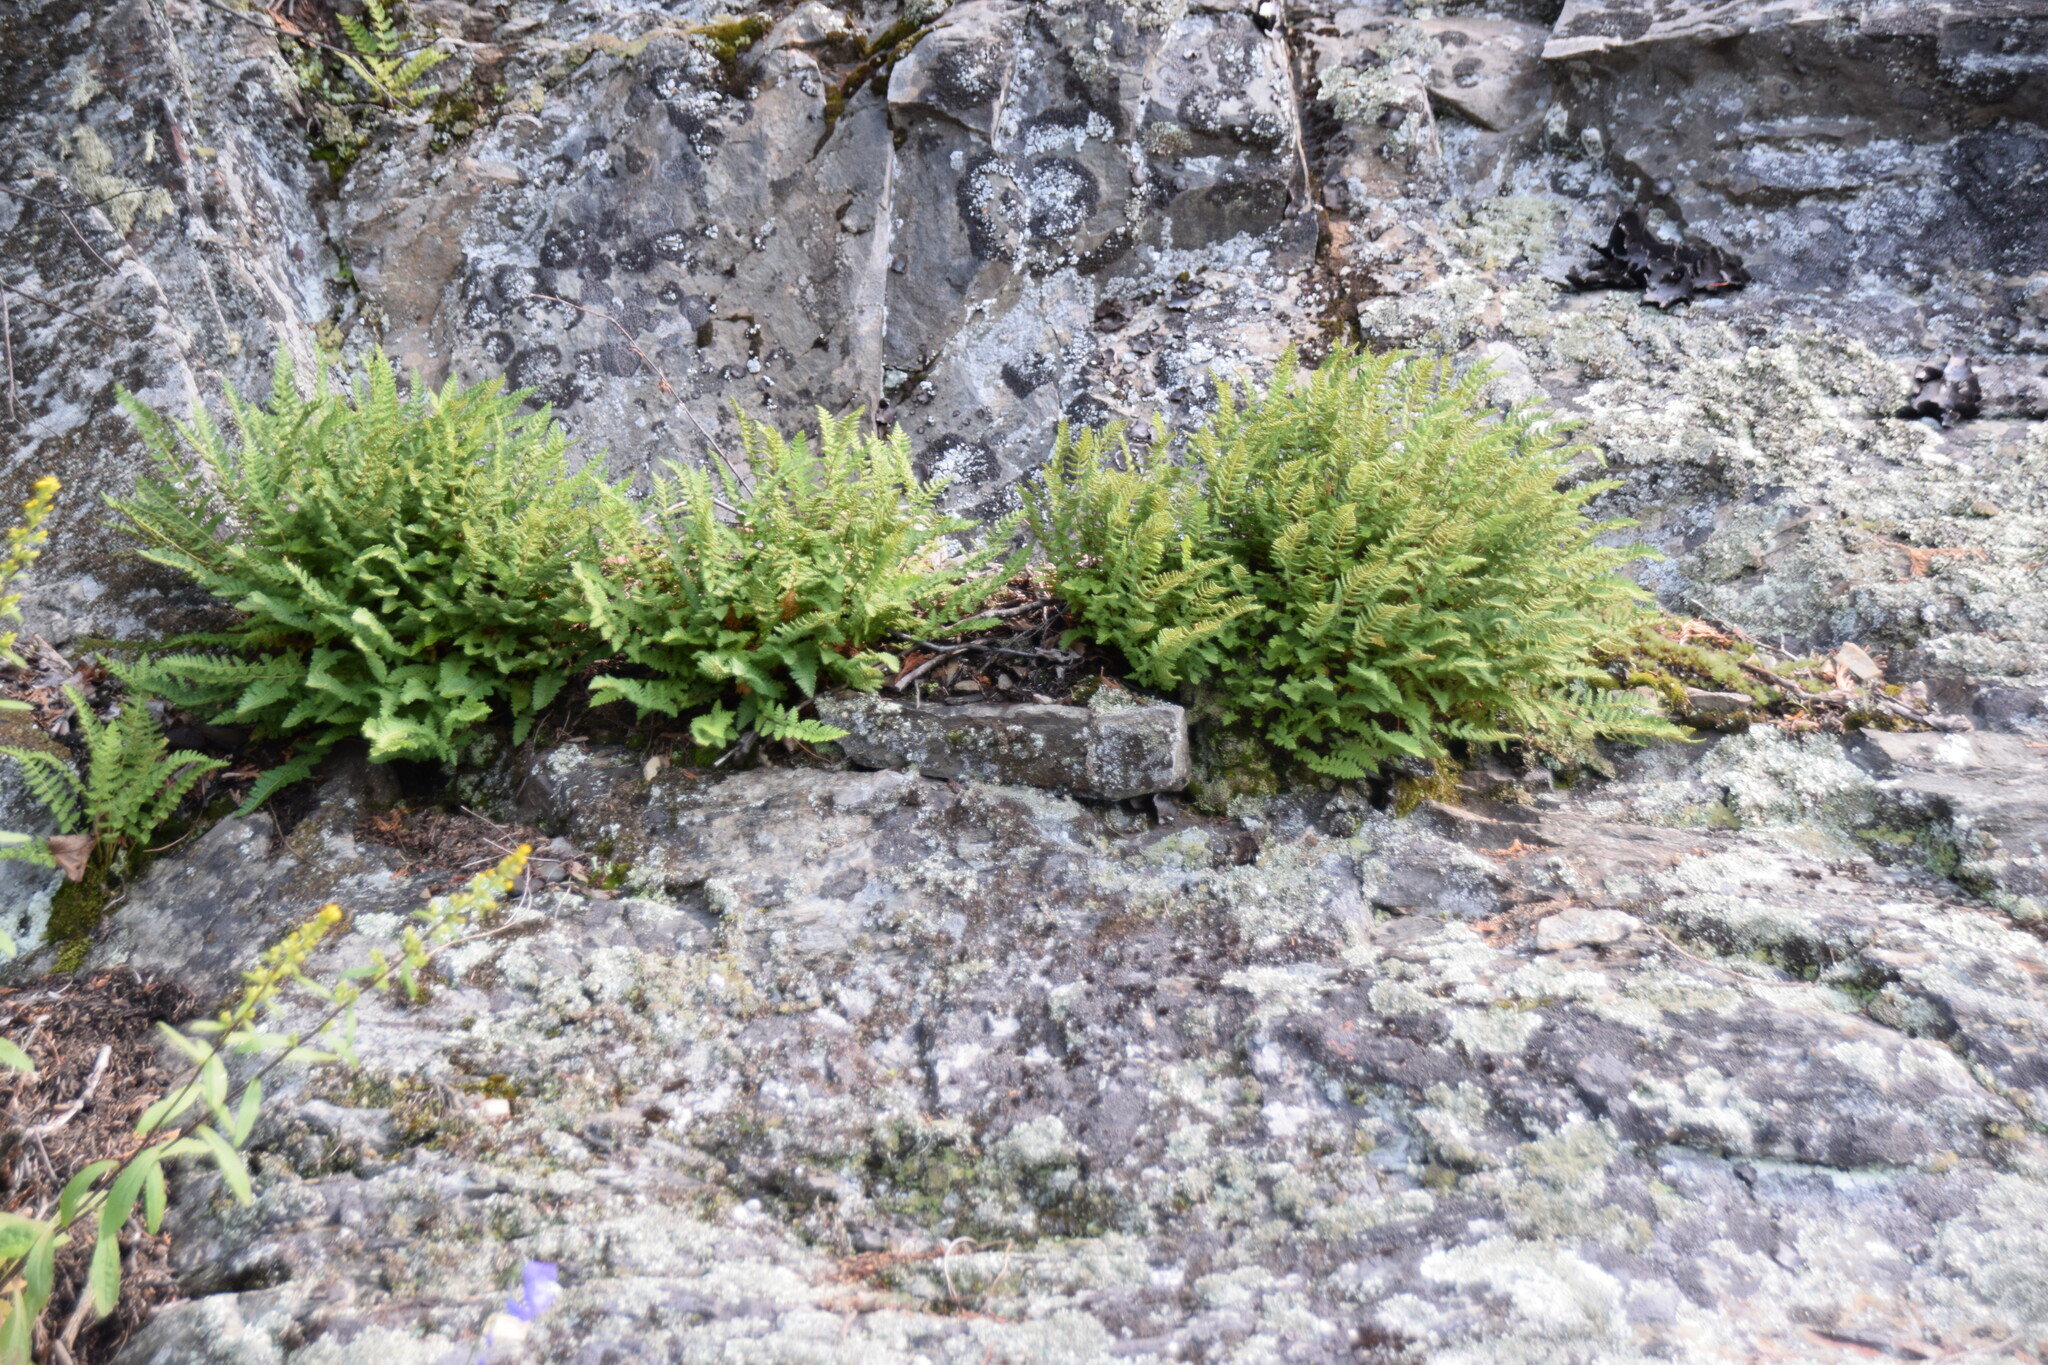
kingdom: Plantae
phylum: Tracheophyta
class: Polypodiopsida
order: Polypodiales
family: Woodsiaceae
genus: Woodsia
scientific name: Woodsia ilvensis
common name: Fragrant woodsia
